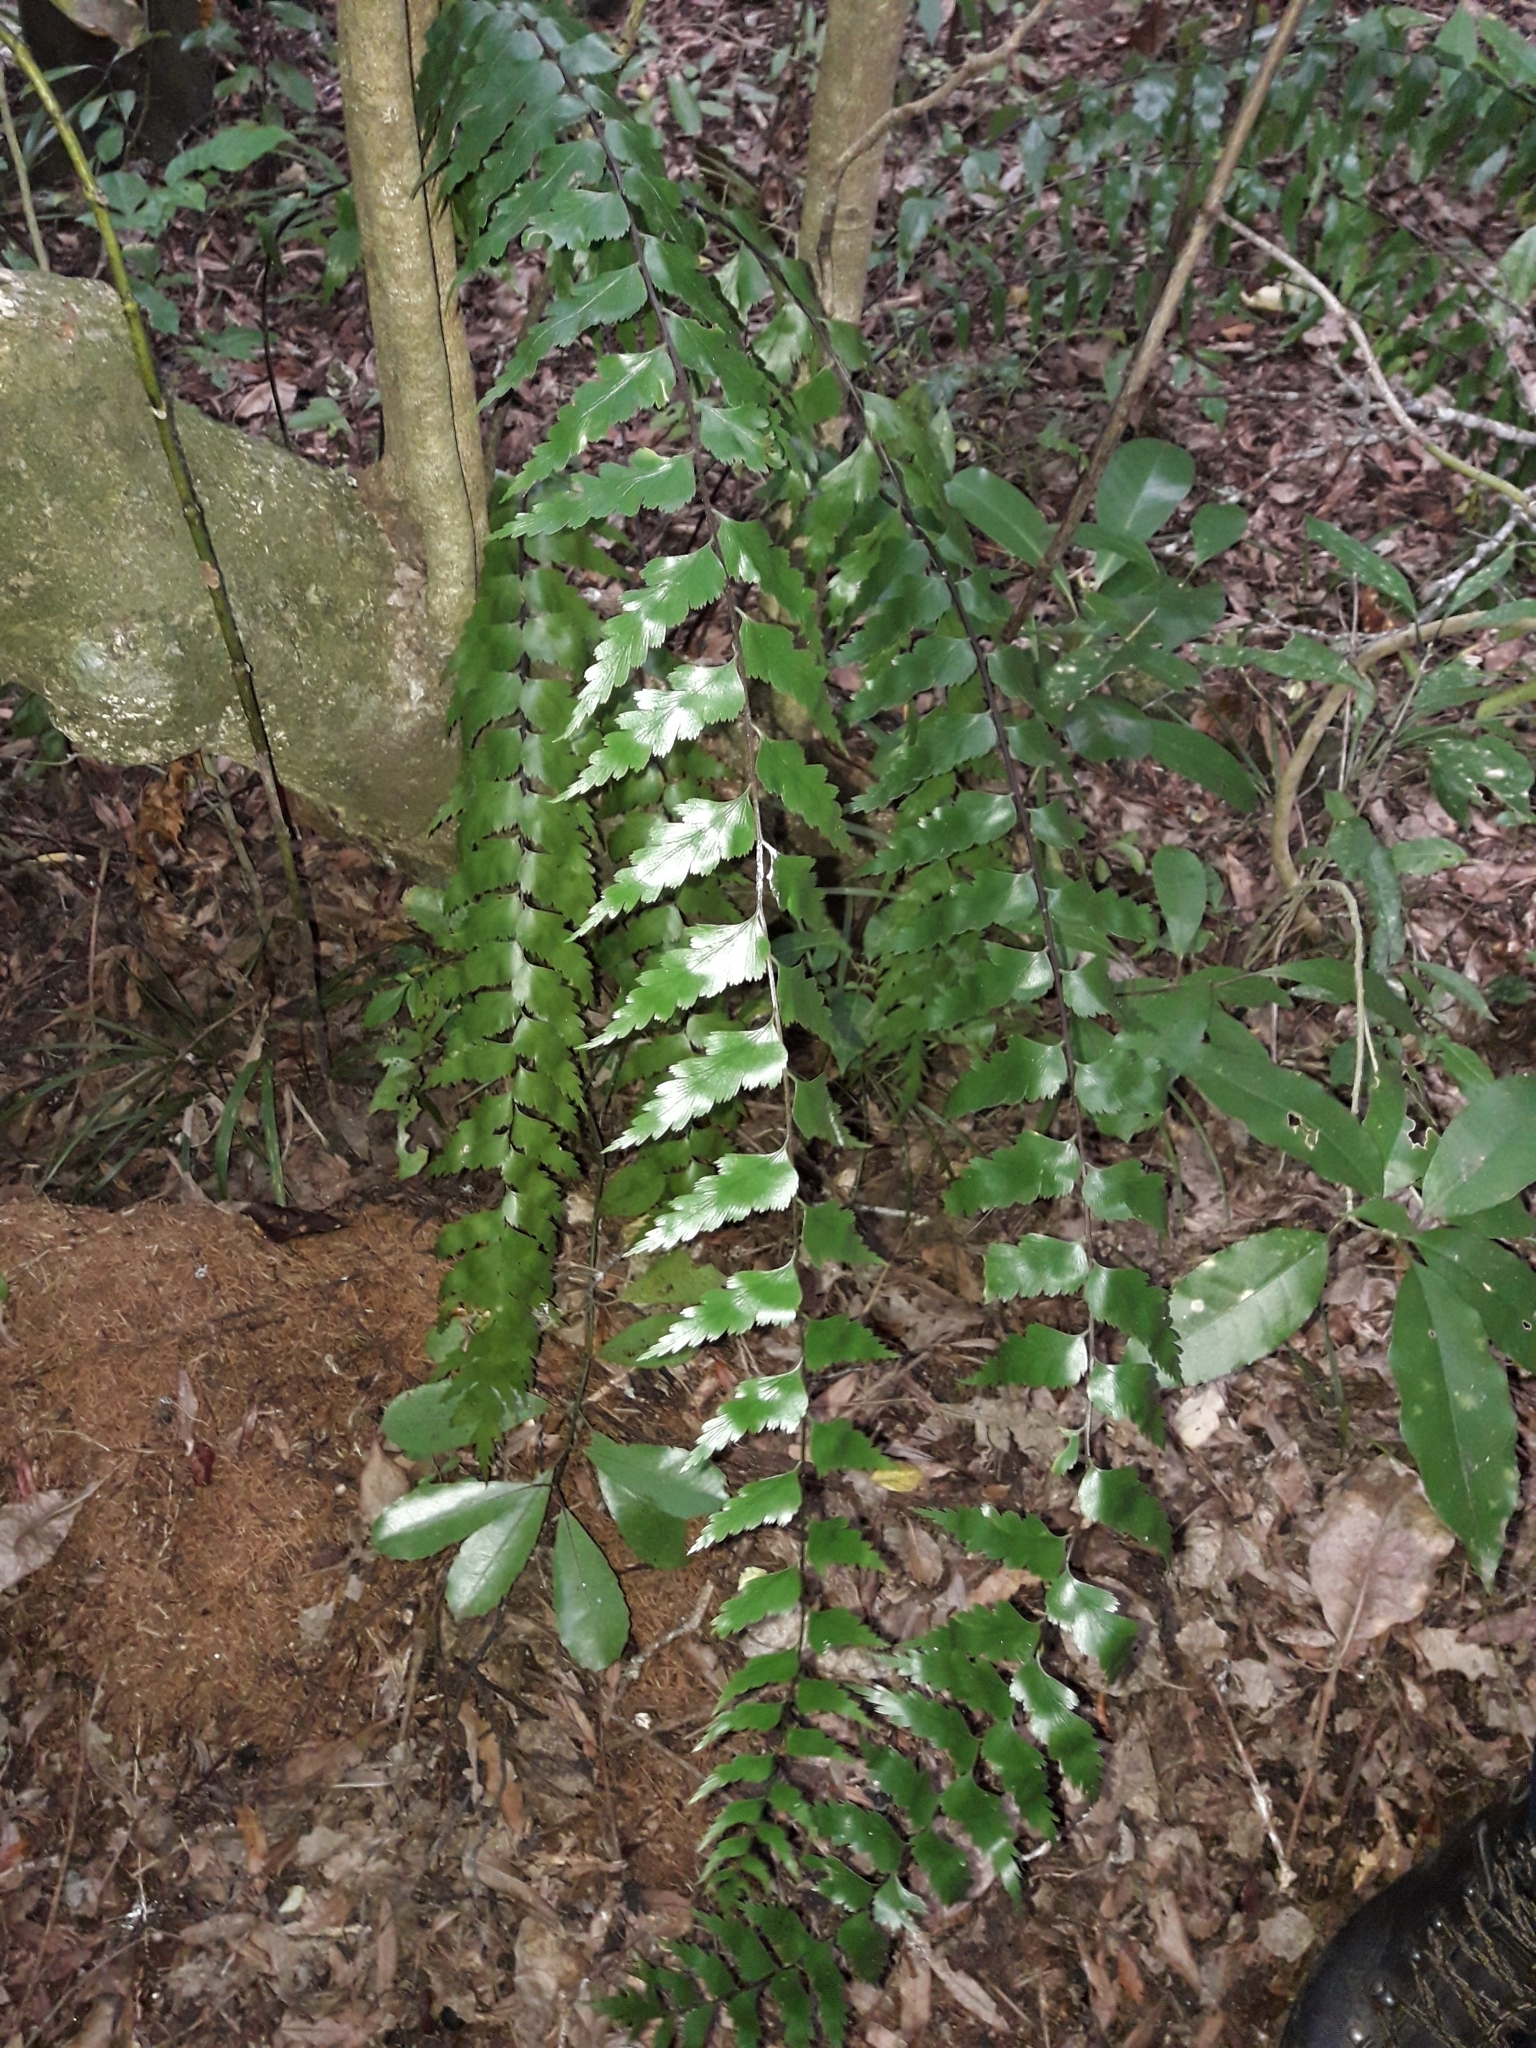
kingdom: Plantae
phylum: Tracheophyta
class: Polypodiopsida
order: Polypodiales
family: Aspleniaceae
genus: Asplenium
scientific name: Asplenium polyodon
